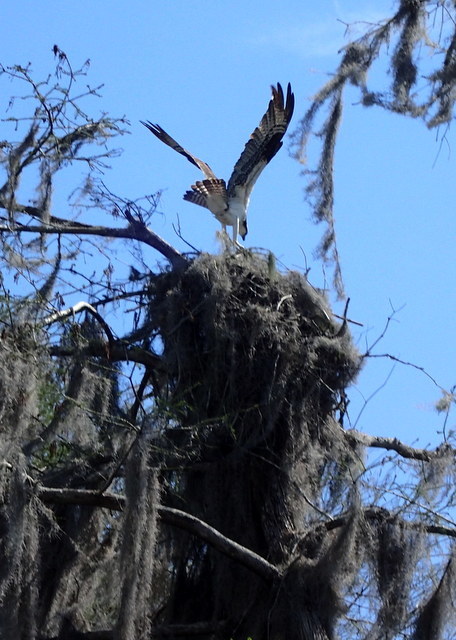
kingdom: Animalia
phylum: Chordata
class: Aves
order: Accipitriformes
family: Pandionidae
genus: Pandion
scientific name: Pandion haliaetus
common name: Osprey
